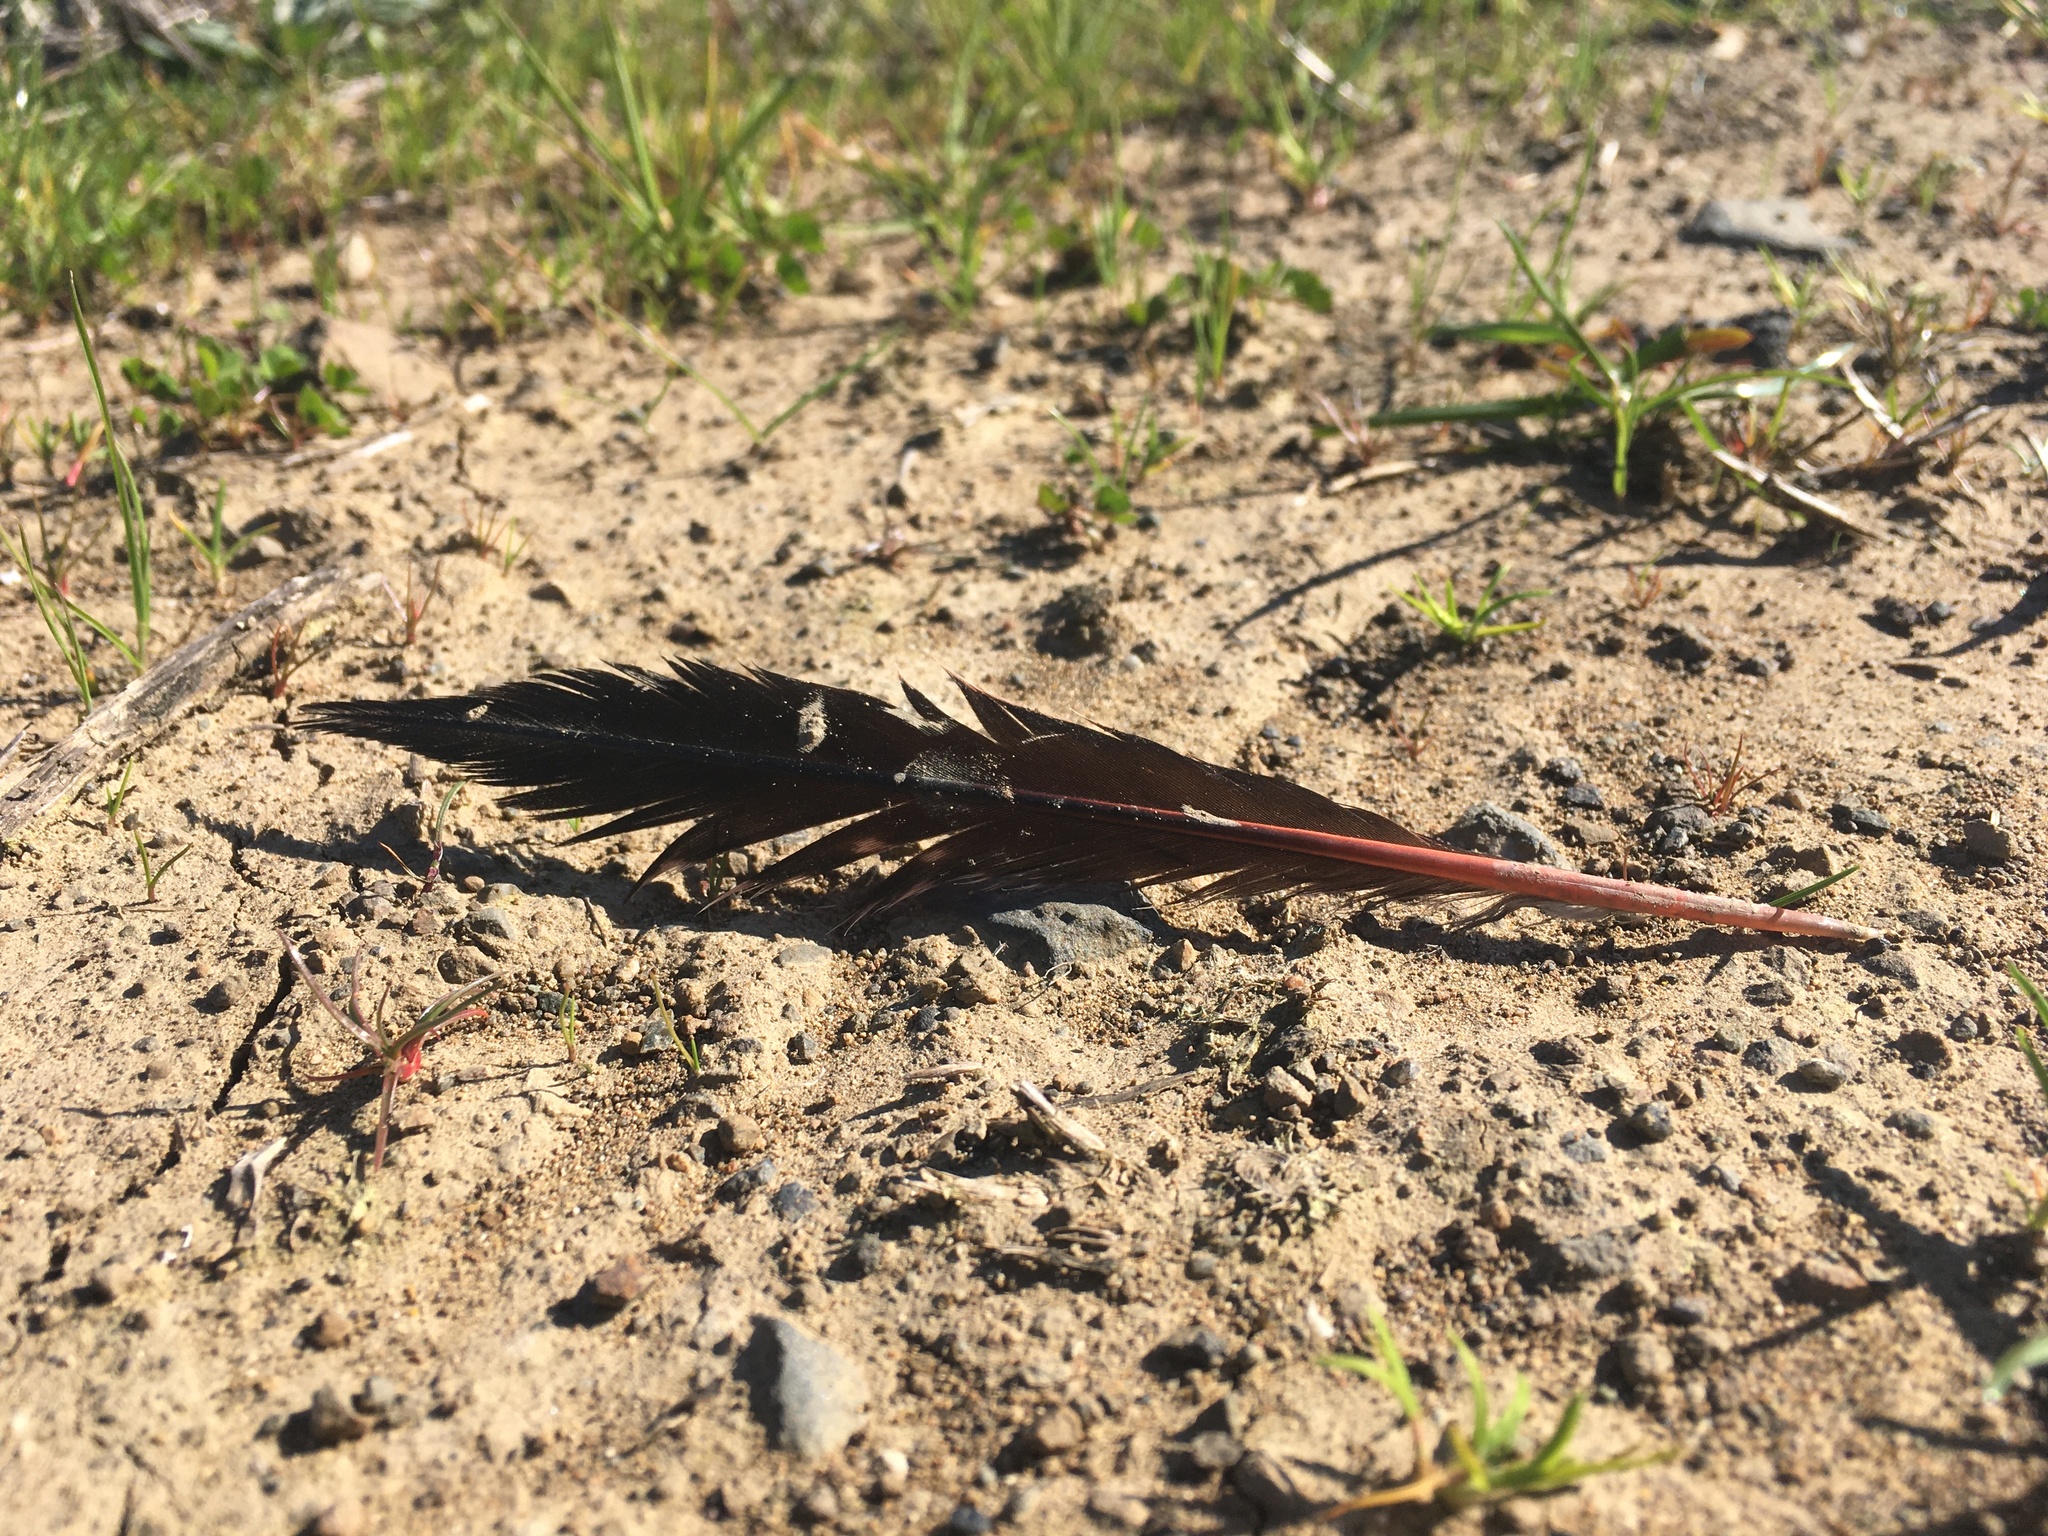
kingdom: Animalia
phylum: Chordata
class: Aves
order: Piciformes
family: Picidae
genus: Colaptes
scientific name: Colaptes auratus
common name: Northern flicker
